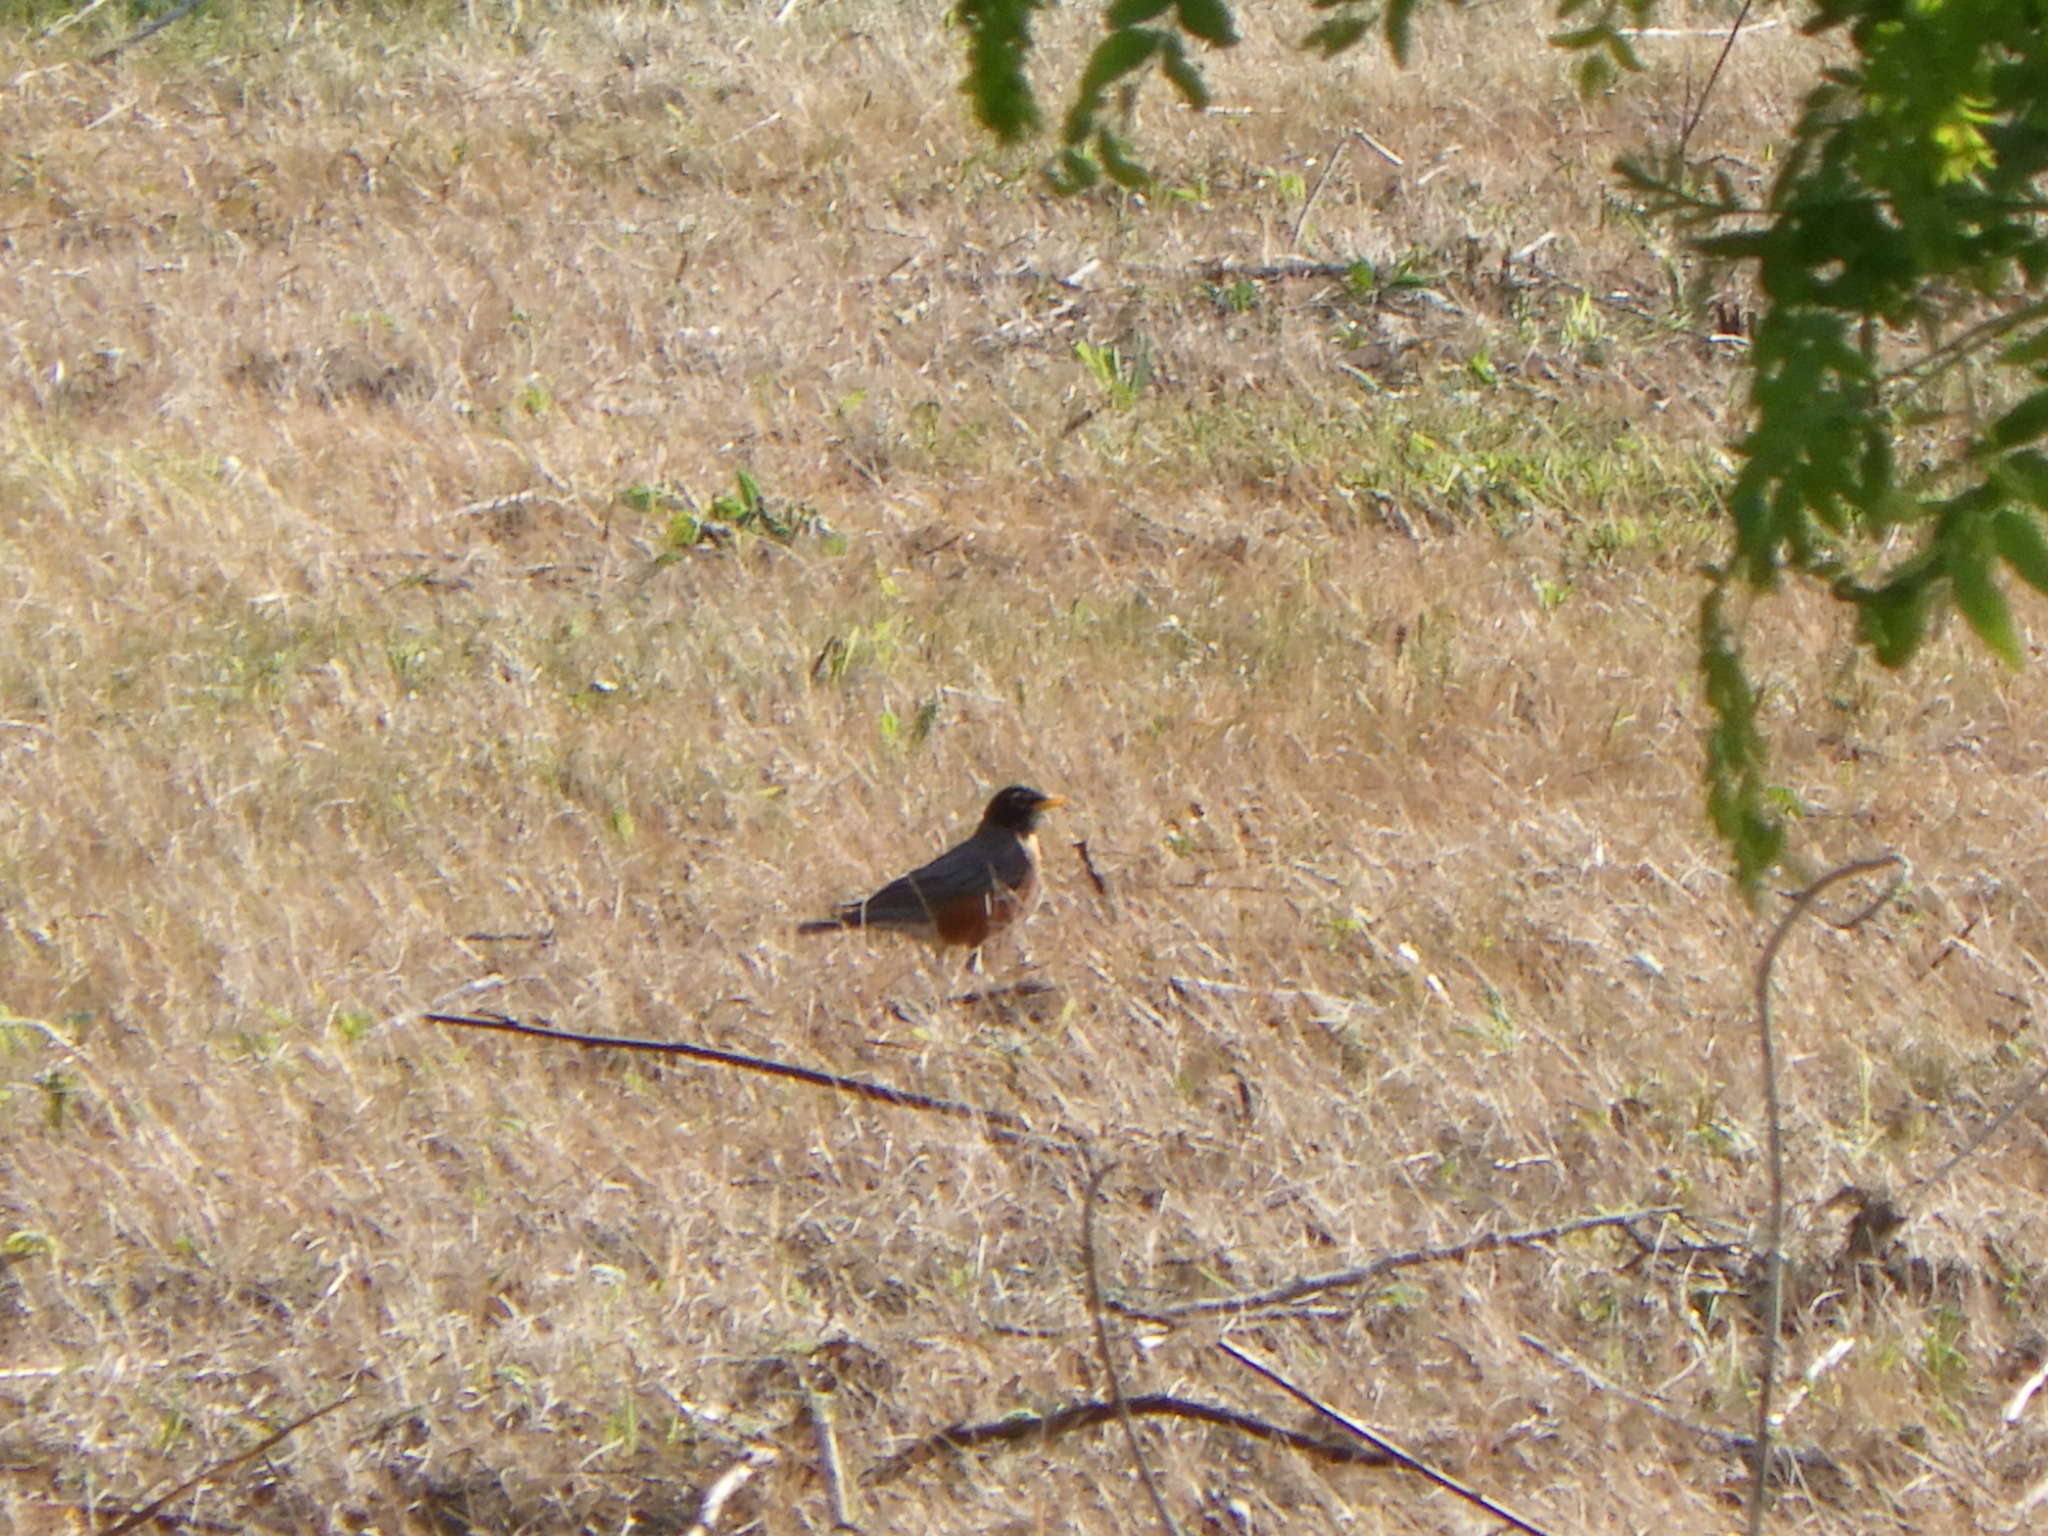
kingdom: Animalia
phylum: Chordata
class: Aves
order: Passeriformes
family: Turdidae
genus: Turdus
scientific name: Turdus migratorius
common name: American robin
